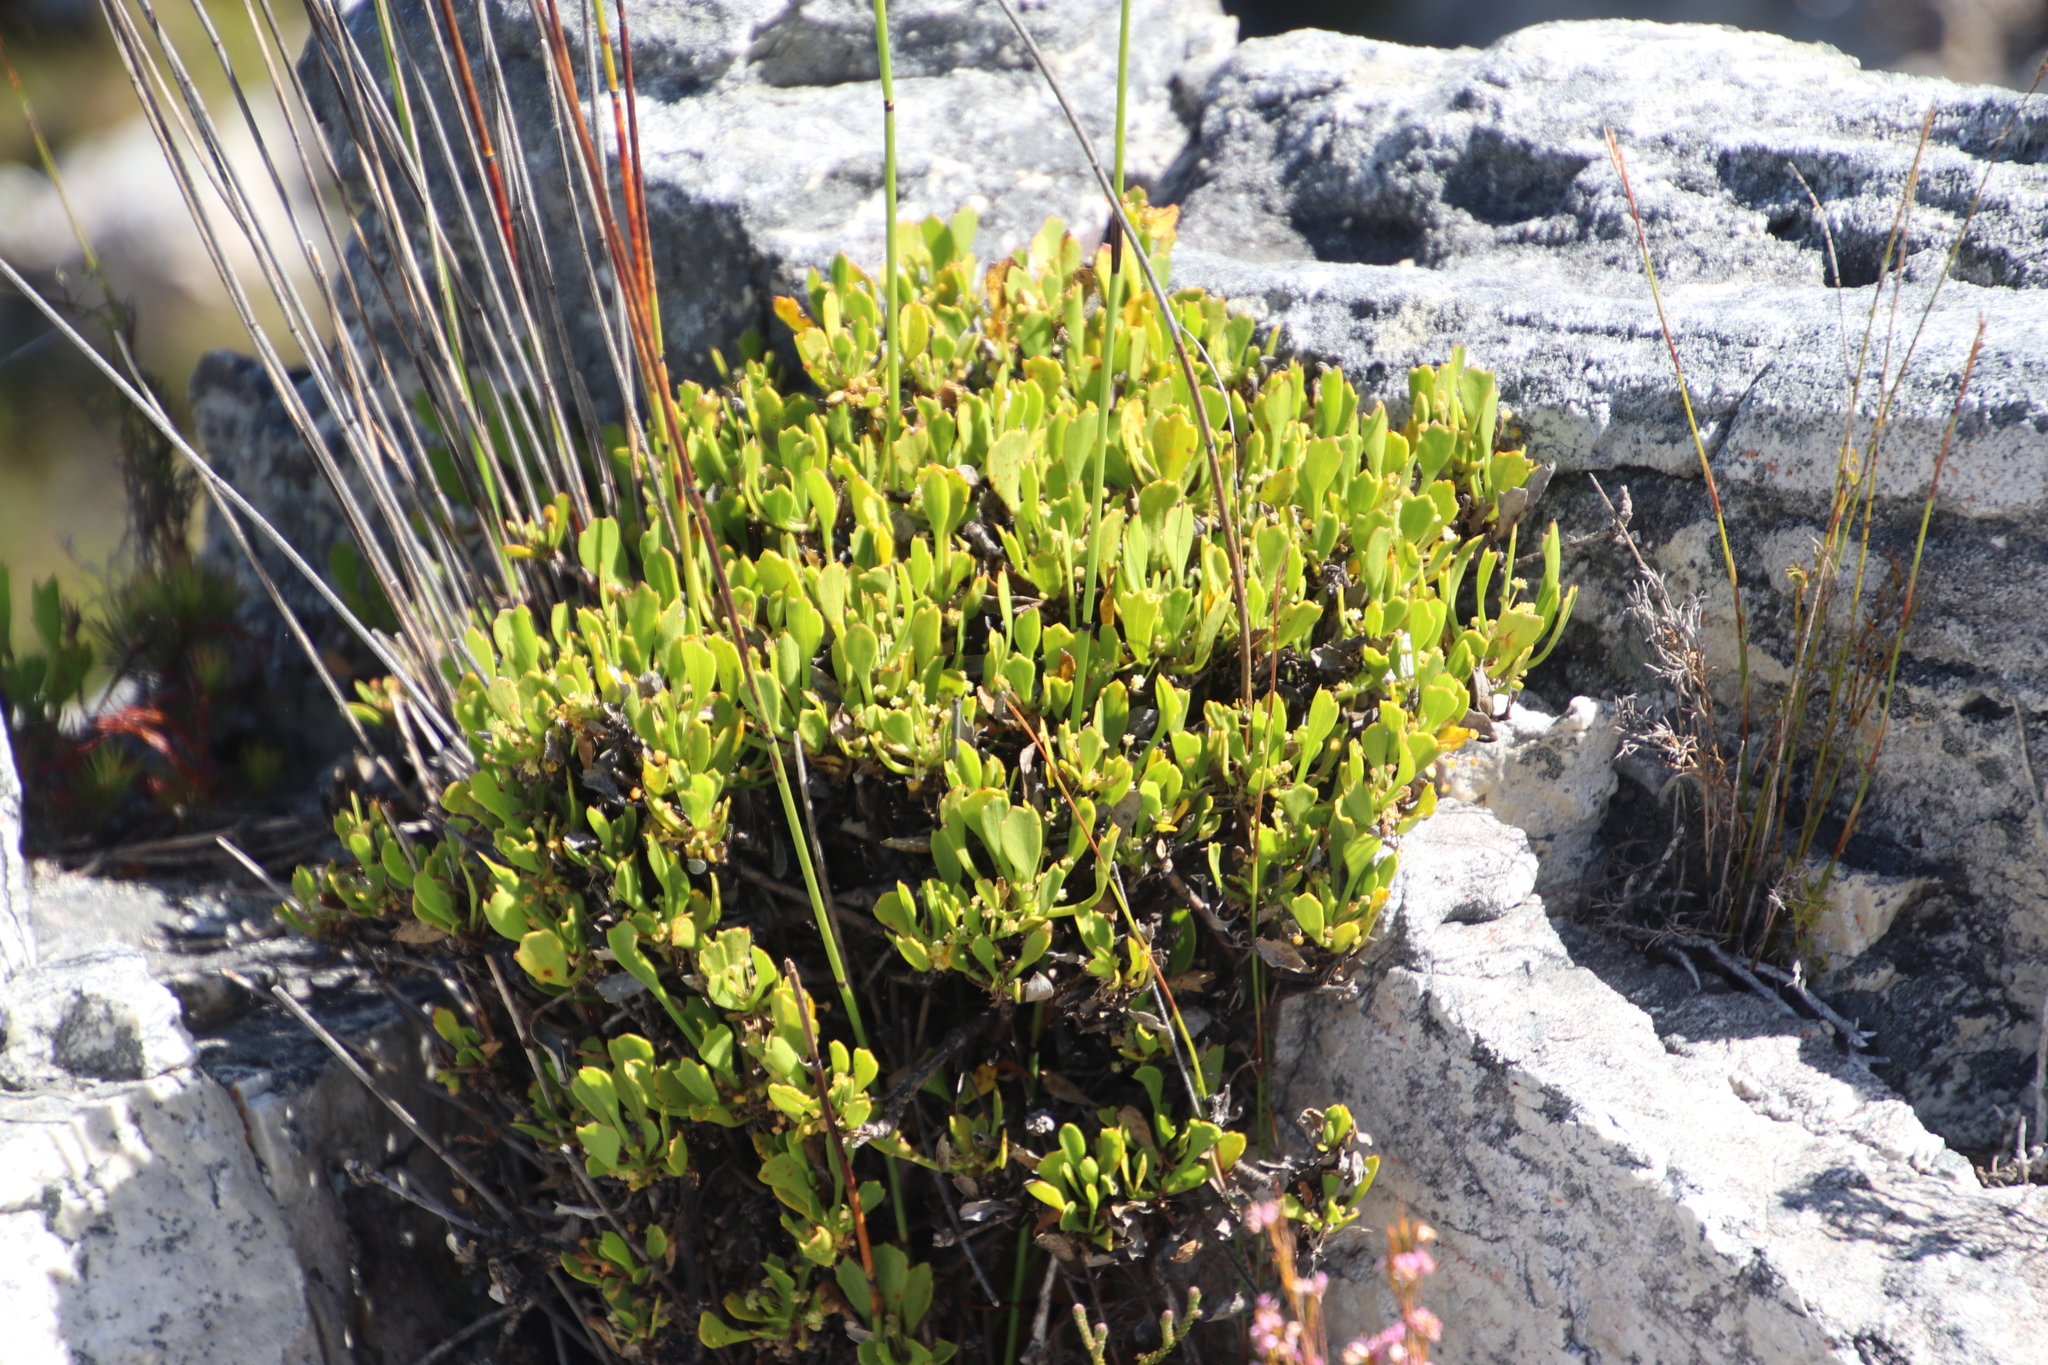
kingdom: Plantae
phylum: Tracheophyta
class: Magnoliopsida
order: Apiales
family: Apiaceae
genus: Centella
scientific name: Centella triloba
